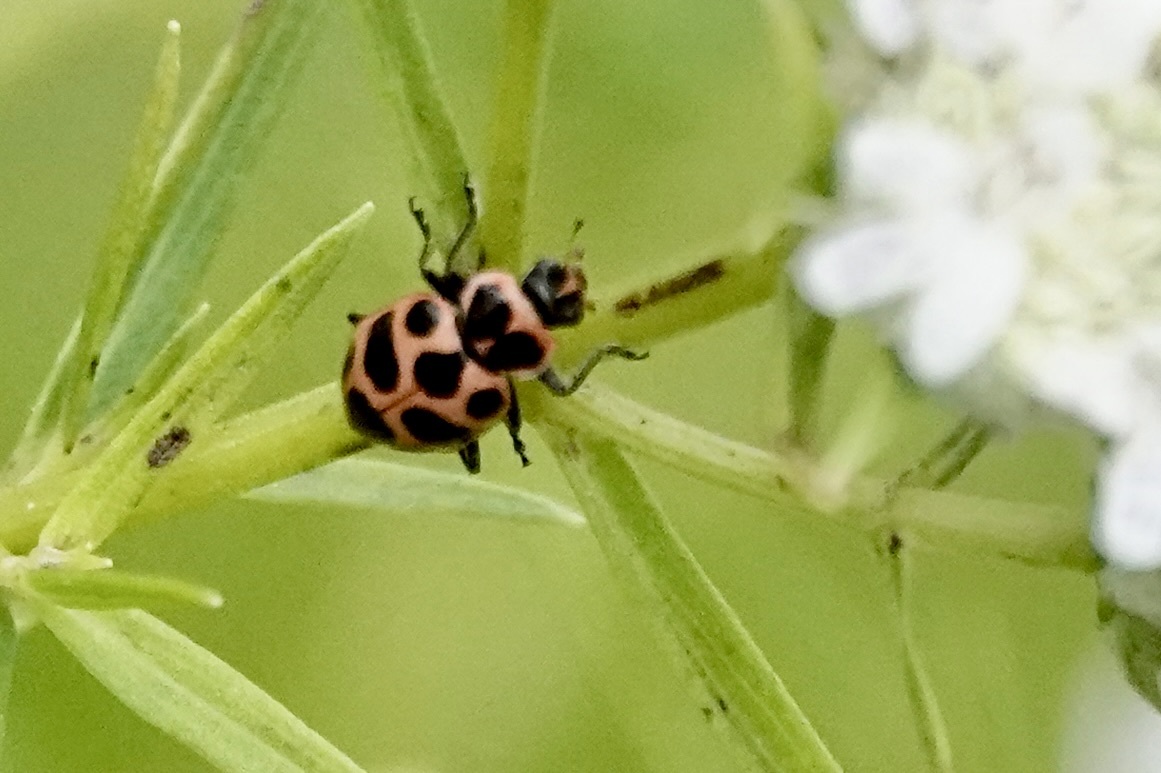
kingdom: Animalia
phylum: Arthropoda
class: Insecta
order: Coleoptera
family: Coccinellidae
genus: Coleomegilla
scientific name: Coleomegilla maculata
